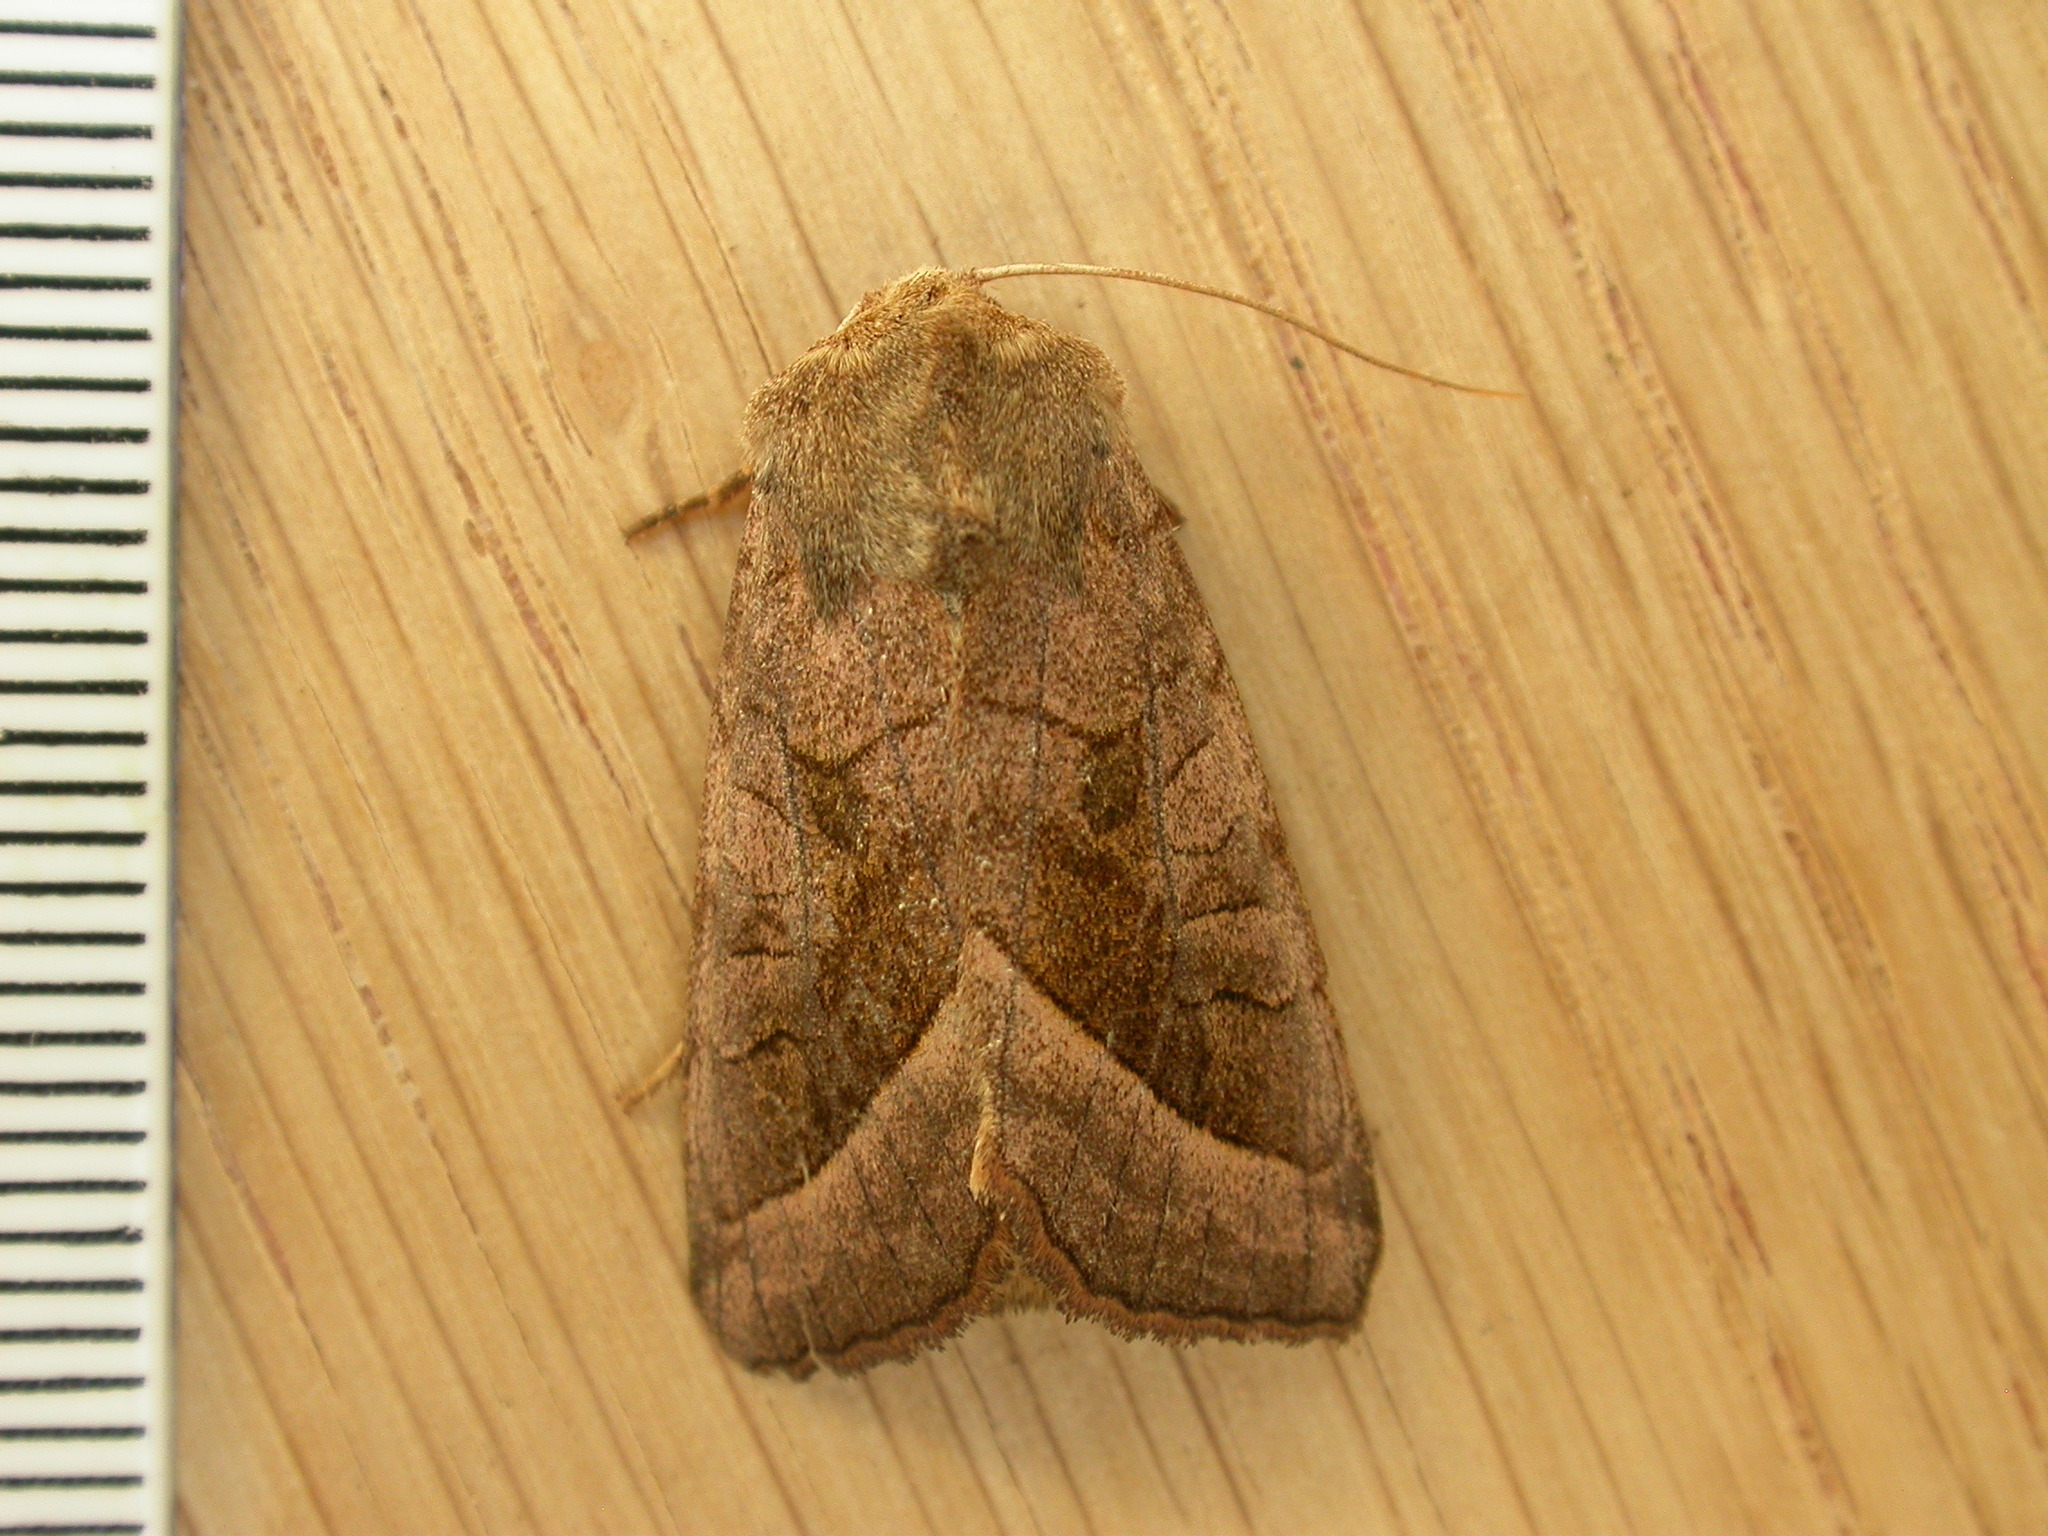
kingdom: Animalia
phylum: Arthropoda
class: Insecta
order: Lepidoptera
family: Noctuidae
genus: Hydraecia
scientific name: Hydraecia micacea
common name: Rosy rustic
